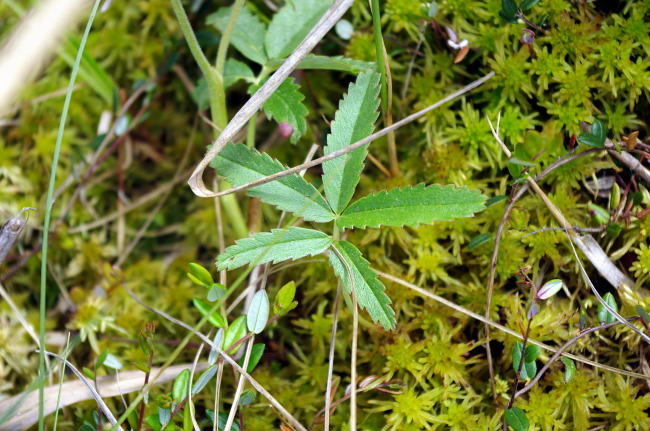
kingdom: Plantae
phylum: Tracheophyta
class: Magnoliopsida
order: Rosales
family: Rosaceae
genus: Comarum
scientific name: Comarum palustre
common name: Marsh cinquefoil
